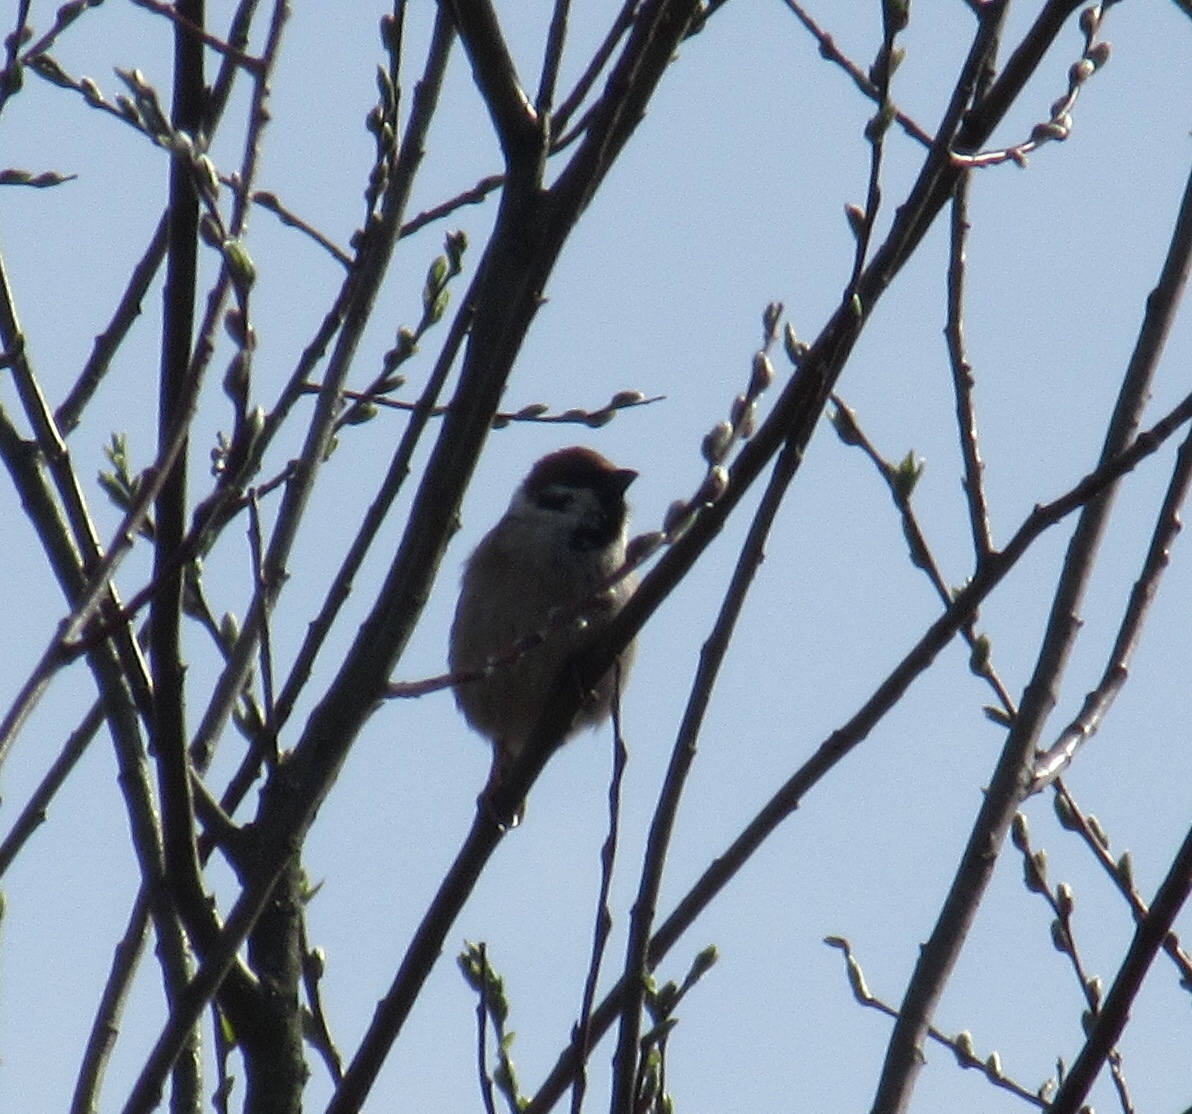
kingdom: Animalia
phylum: Chordata
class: Aves
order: Passeriformes
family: Passeridae
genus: Passer
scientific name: Passer montanus
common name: Eurasian tree sparrow
